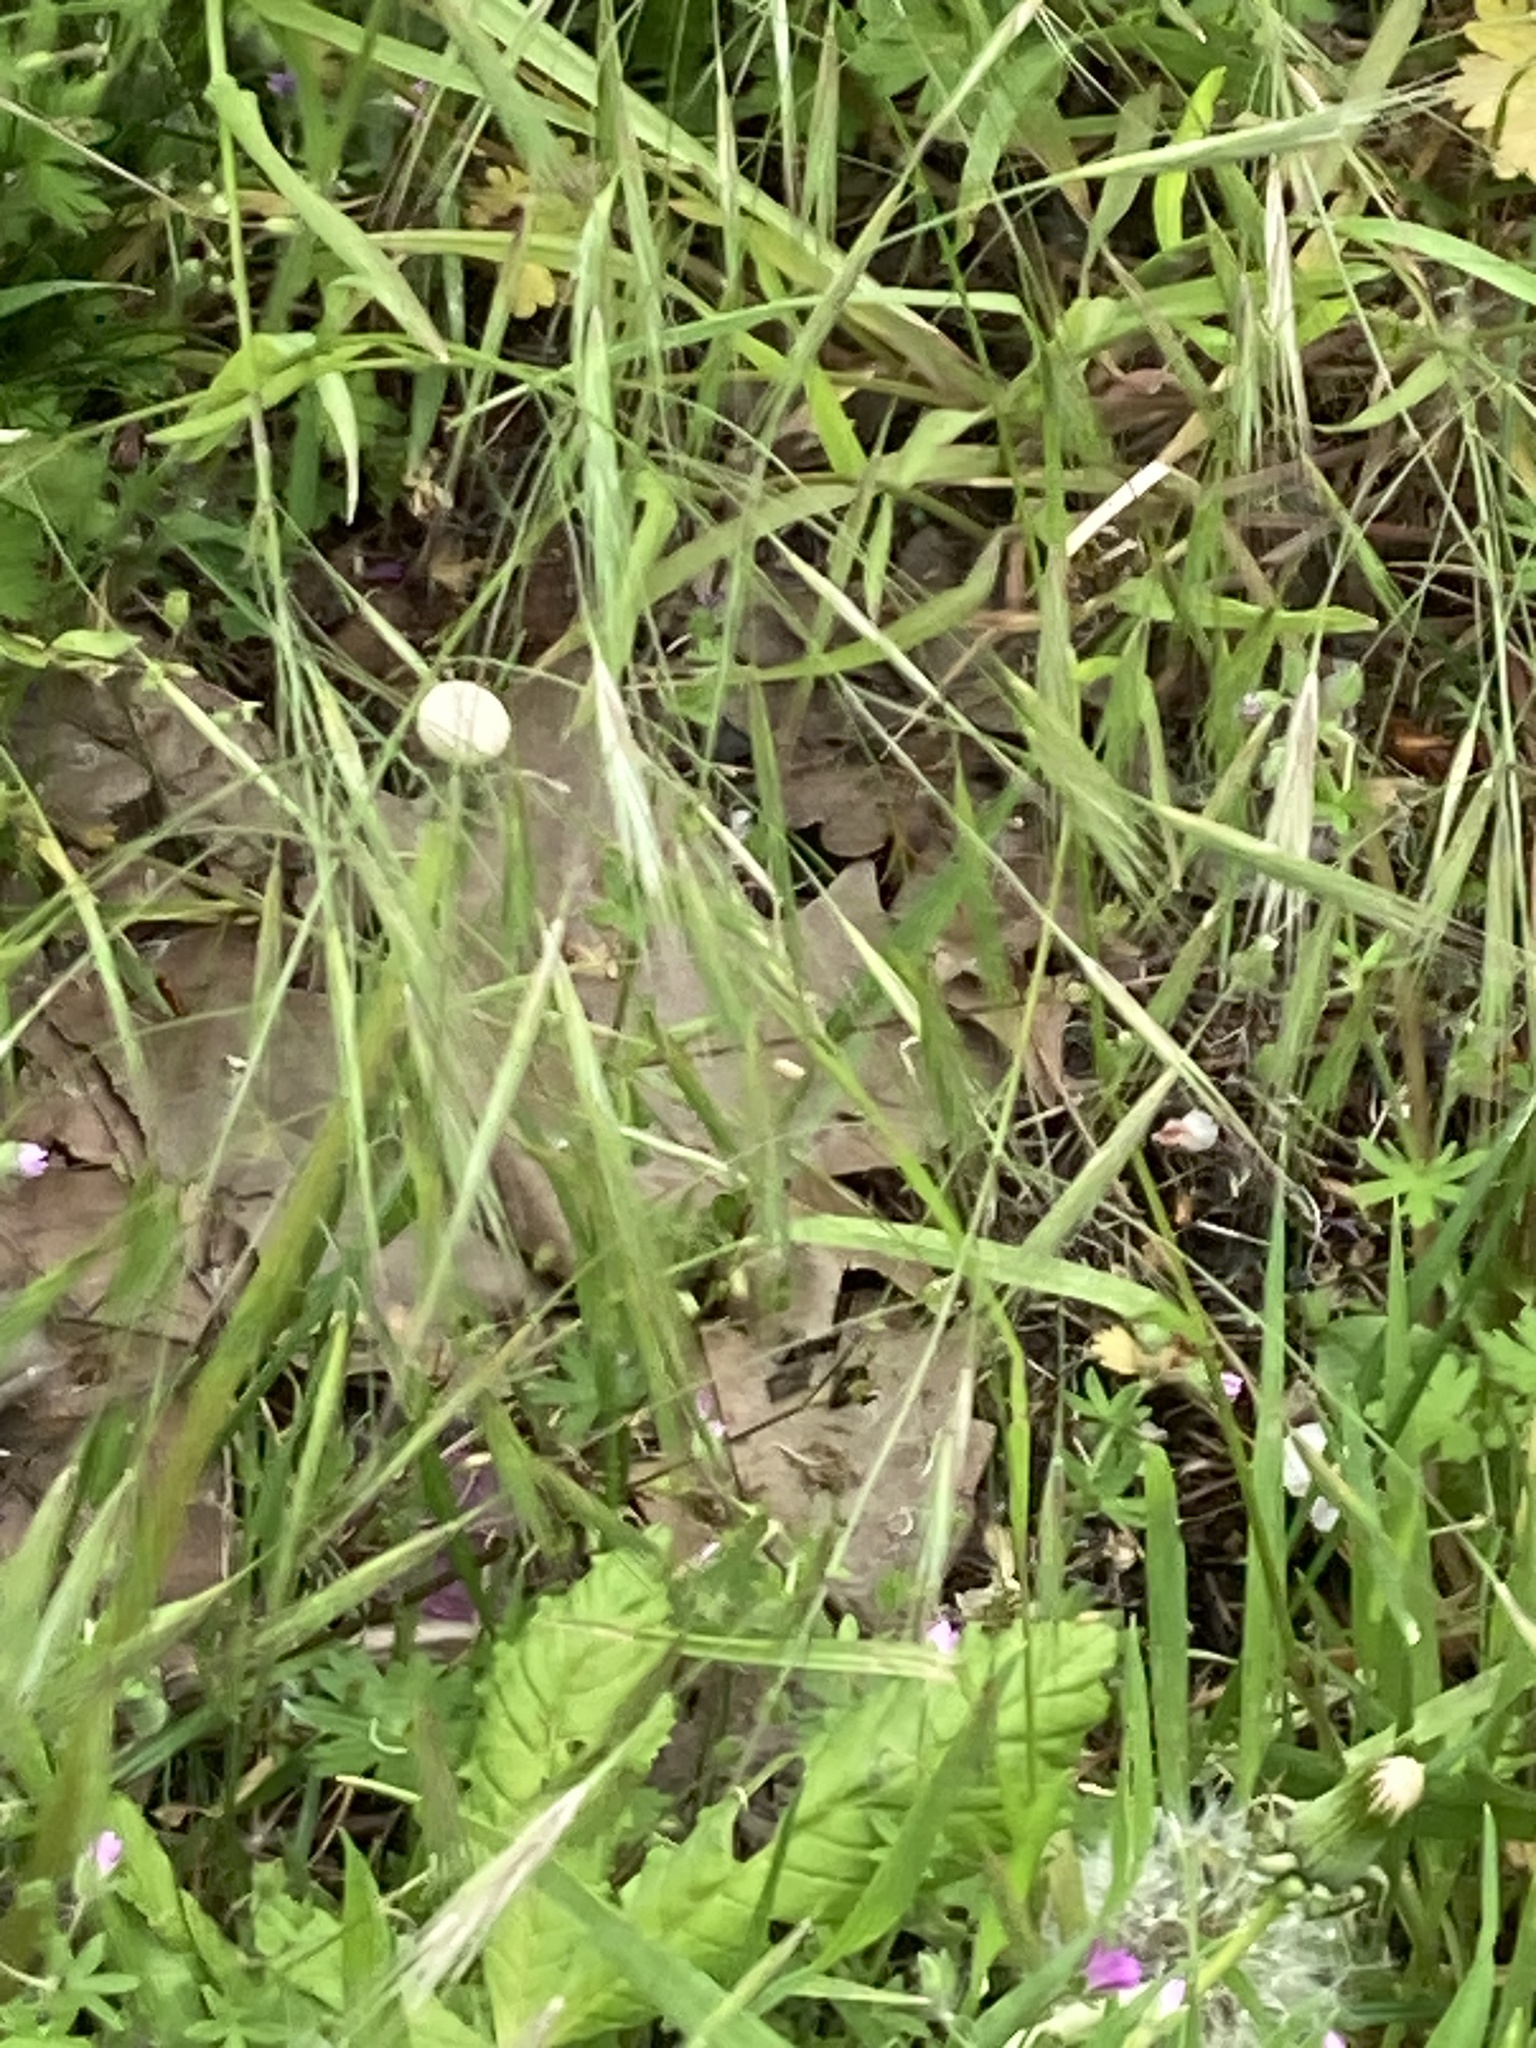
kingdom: Plantae
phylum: Tracheophyta
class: Liliopsida
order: Poales
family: Poaceae
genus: Bromus
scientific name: Bromus sterilis
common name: Poverty brome
